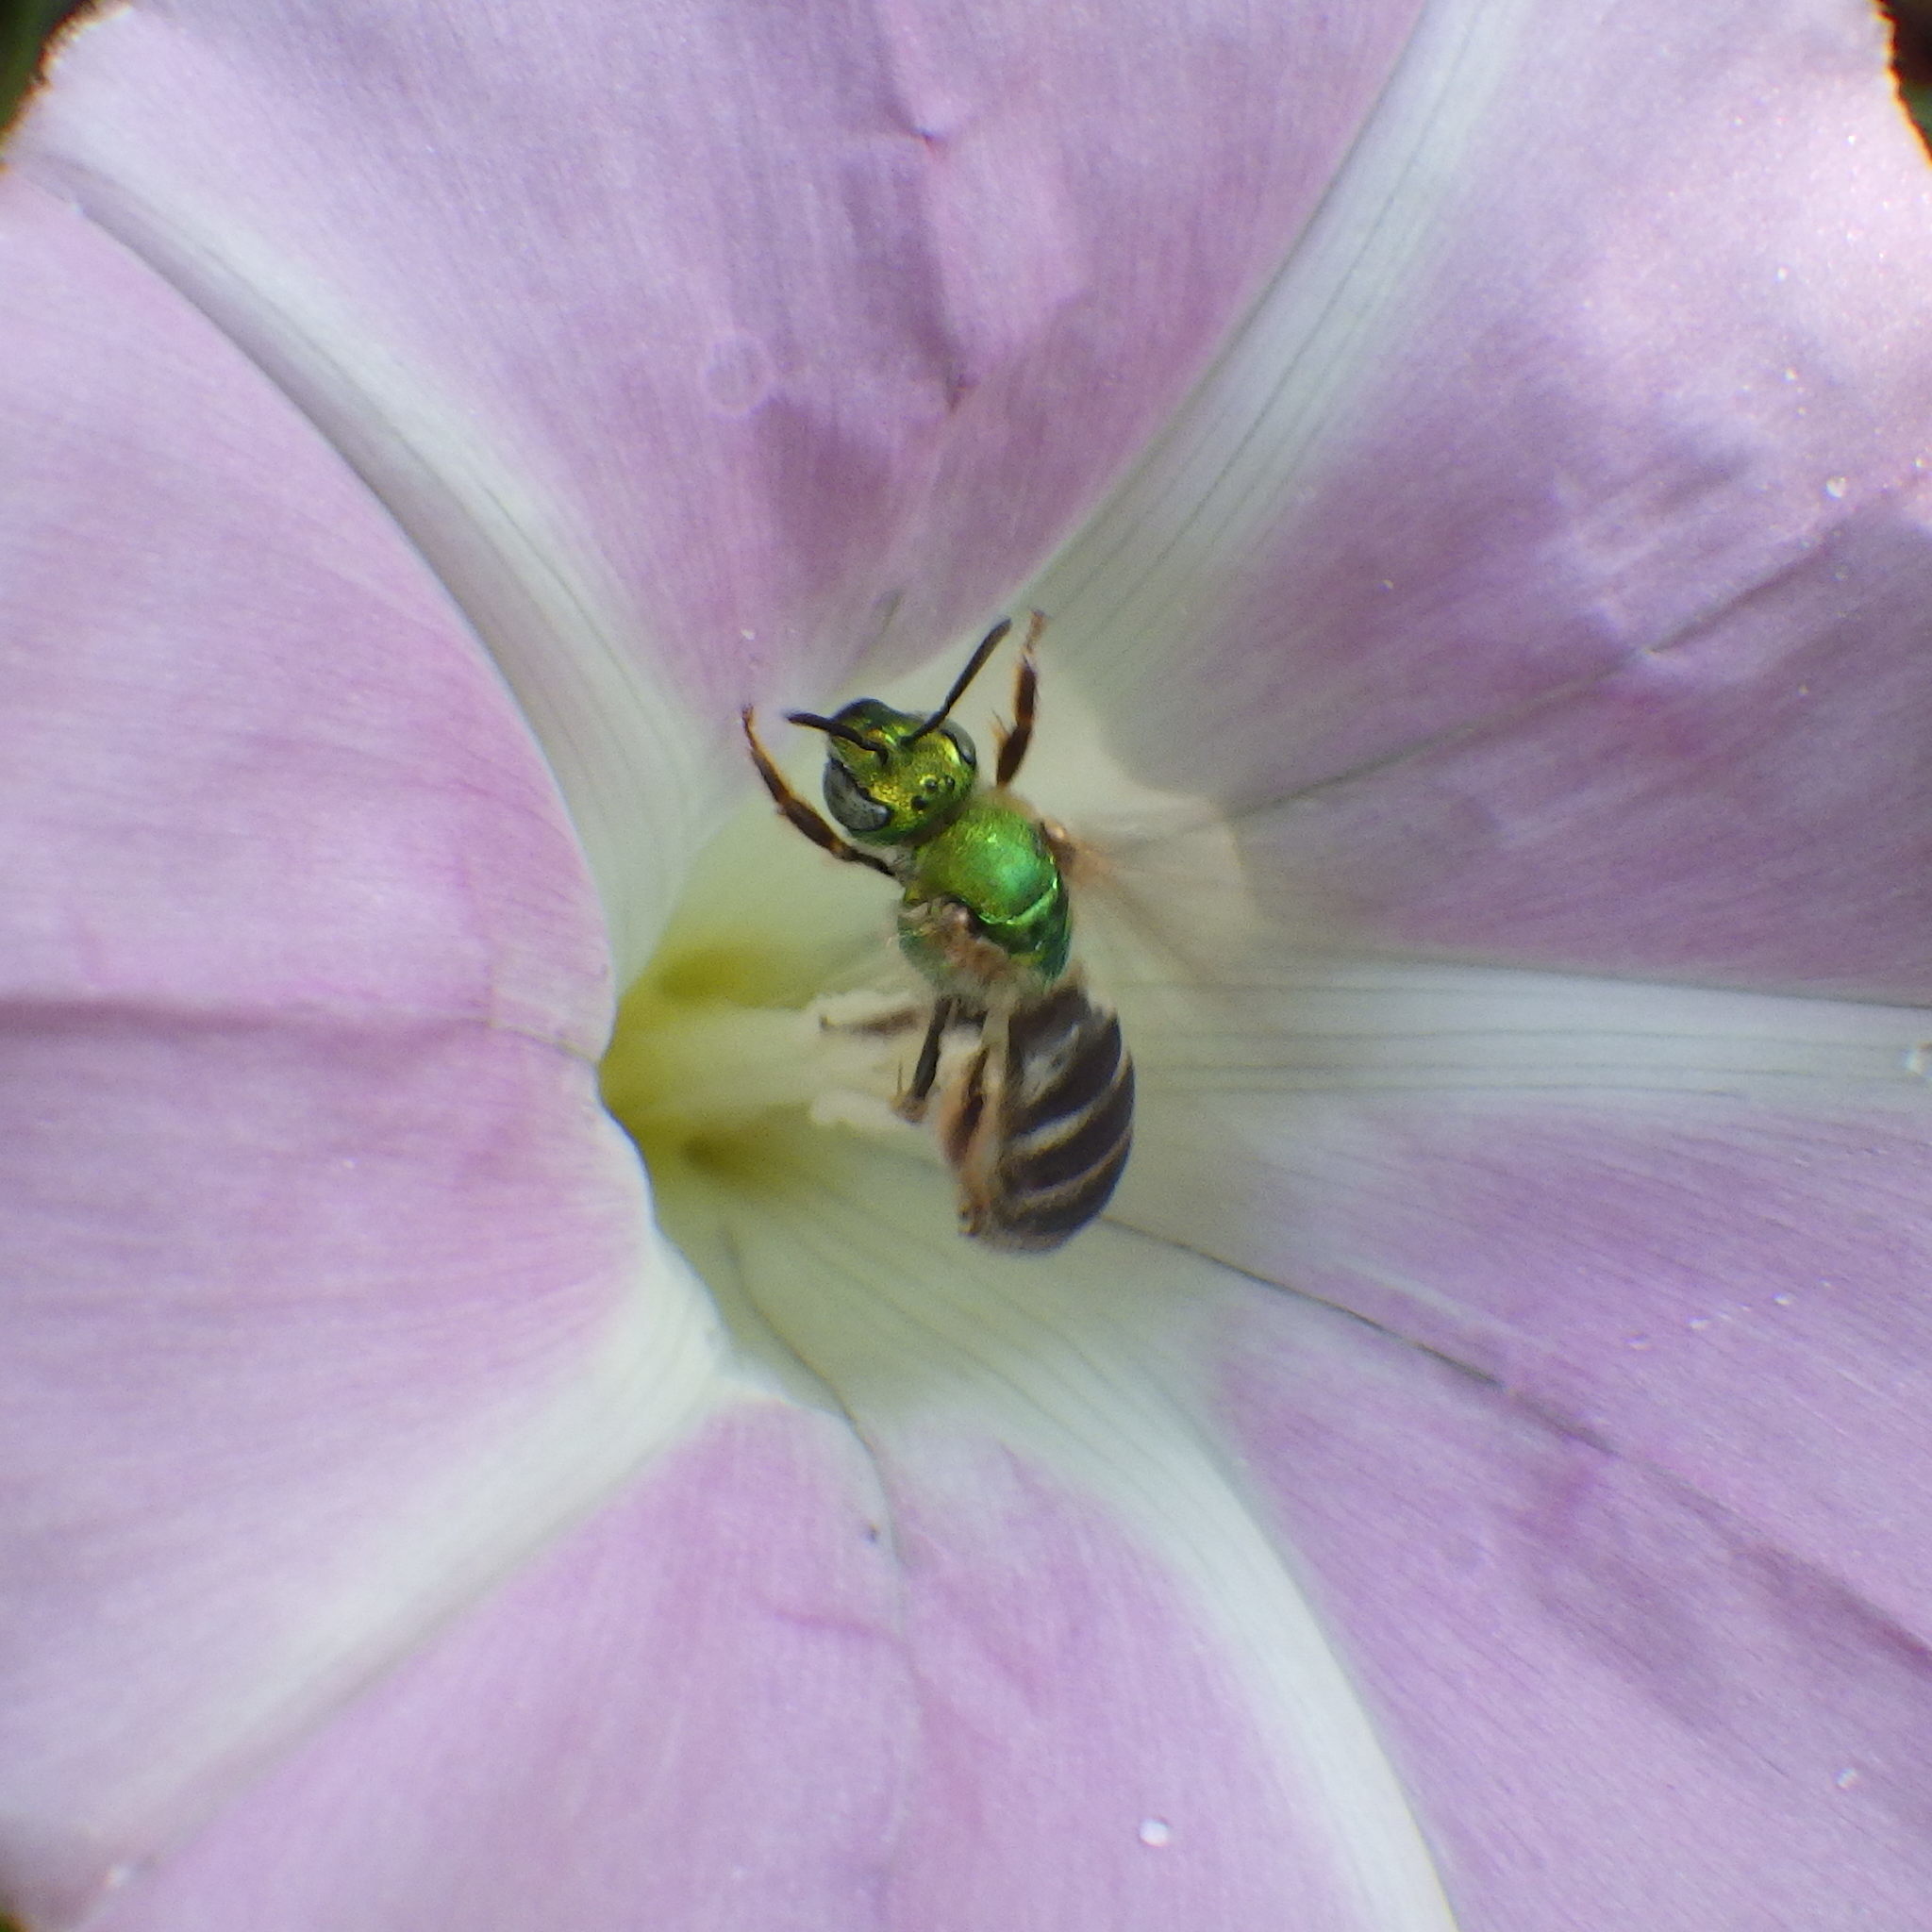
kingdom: Animalia
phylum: Arthropoda
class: Insecta
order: Hymenoptera
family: Halictidae
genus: Agapostemon
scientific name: Agapostemon virescens
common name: Bicolored striped sweat bee
